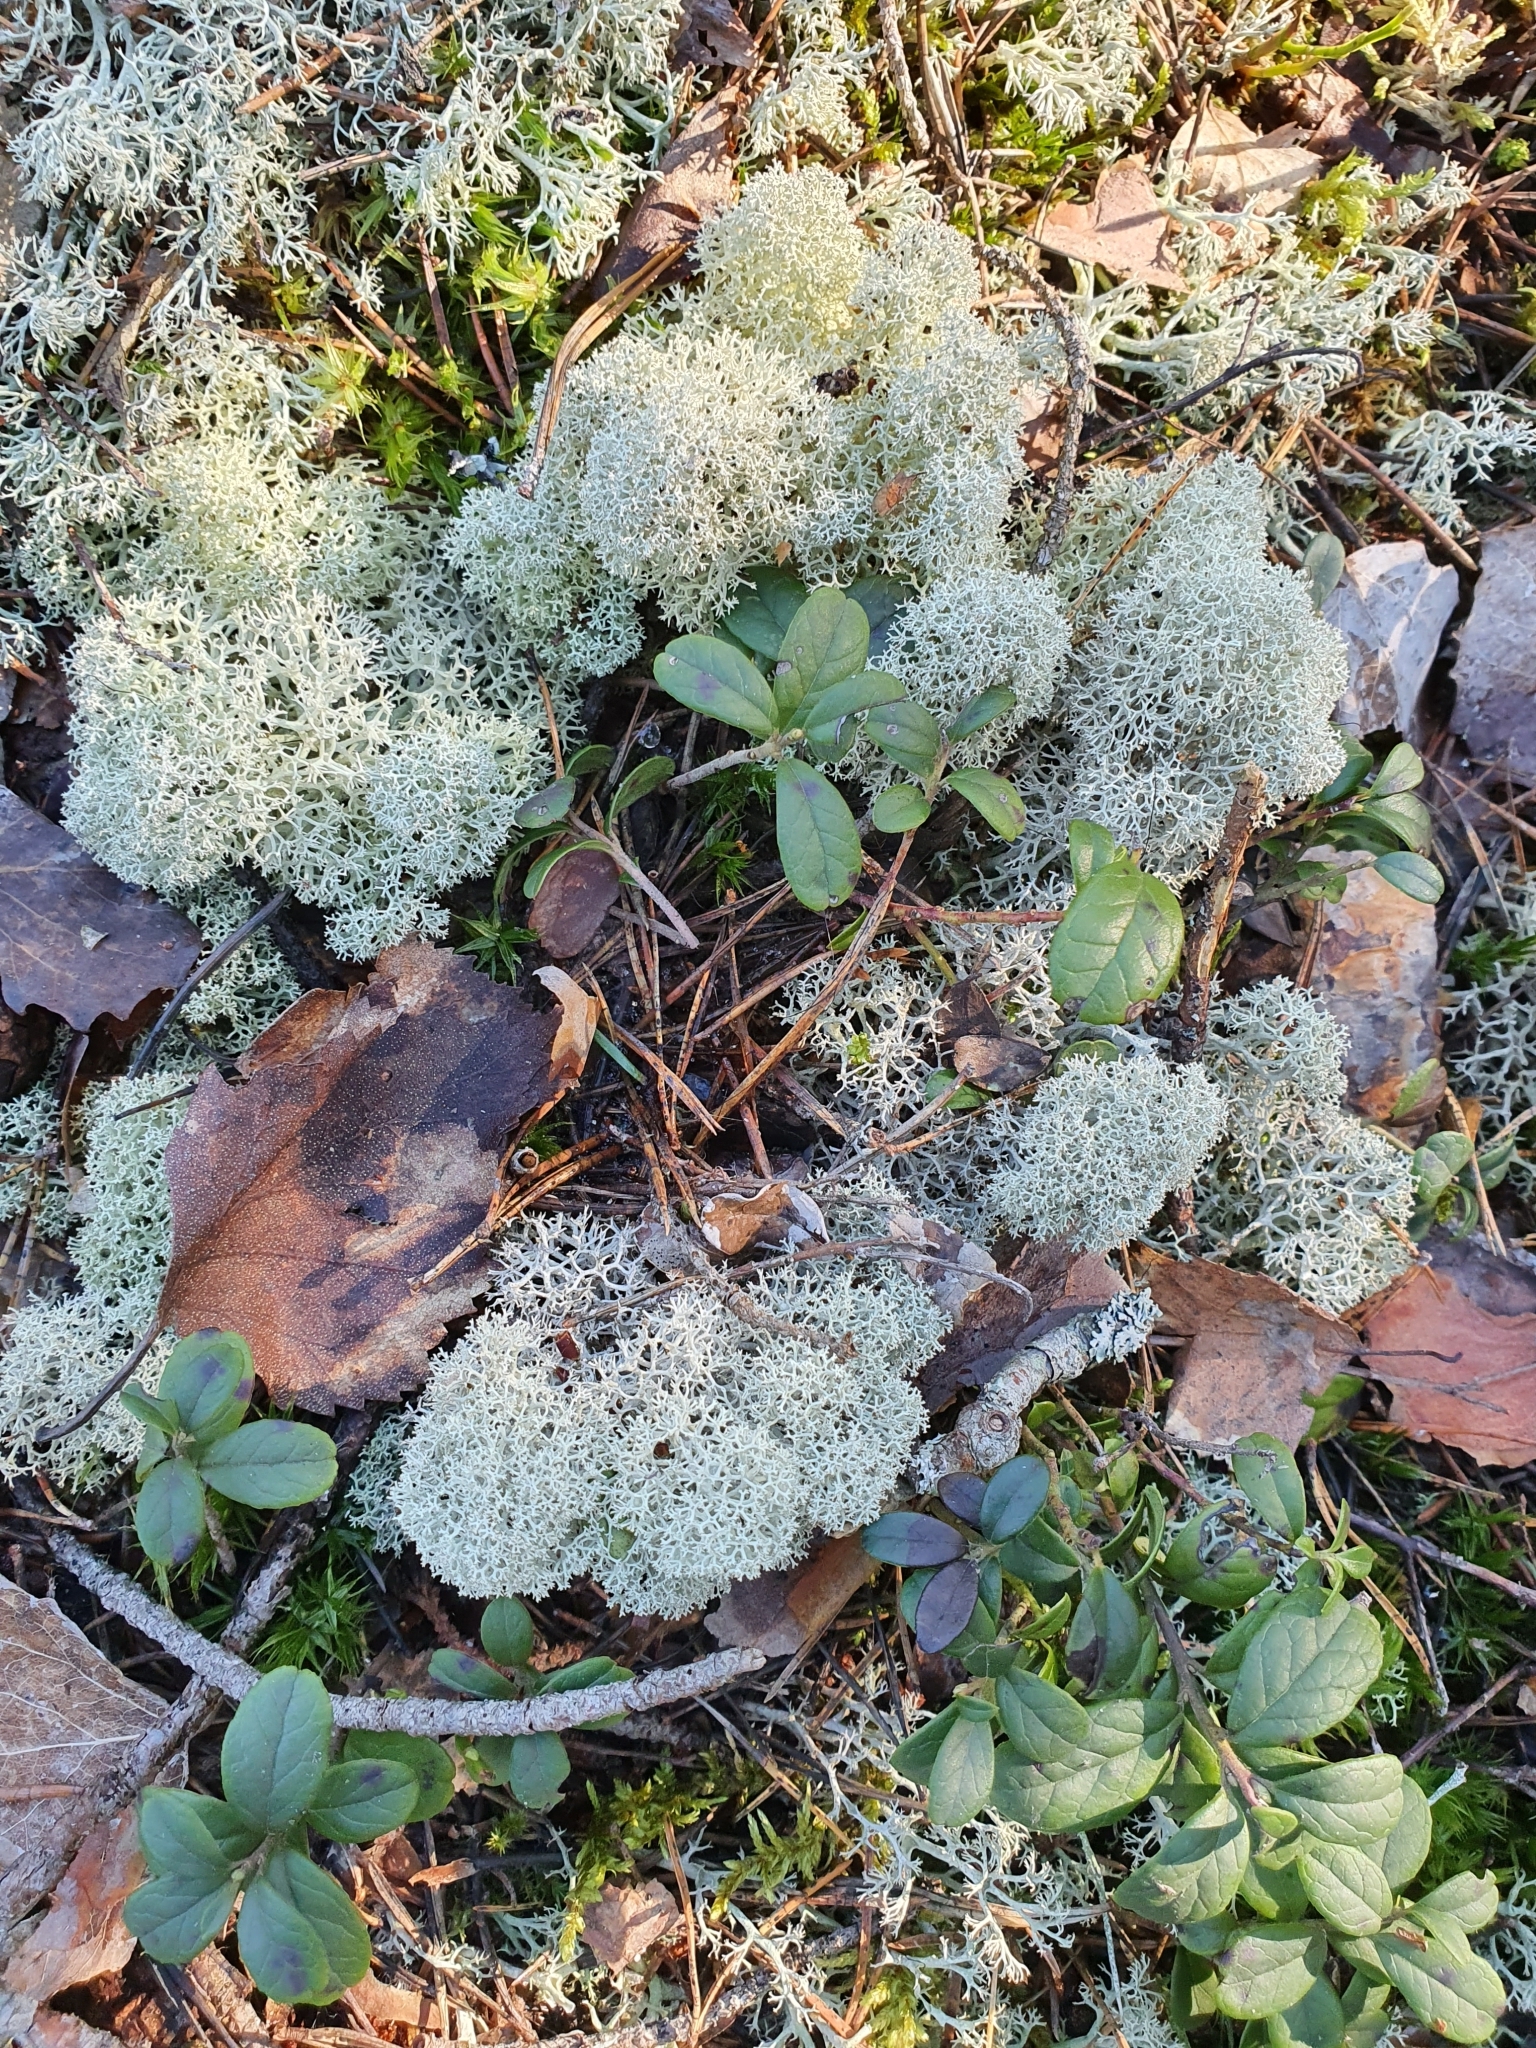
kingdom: Fungi
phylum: Ascomycota
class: Lecanoromycetes
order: Lecanorales
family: Cladoniaceae
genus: Cladonia
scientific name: Cladonia stellaris
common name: Star-tipped reindeer lichen
